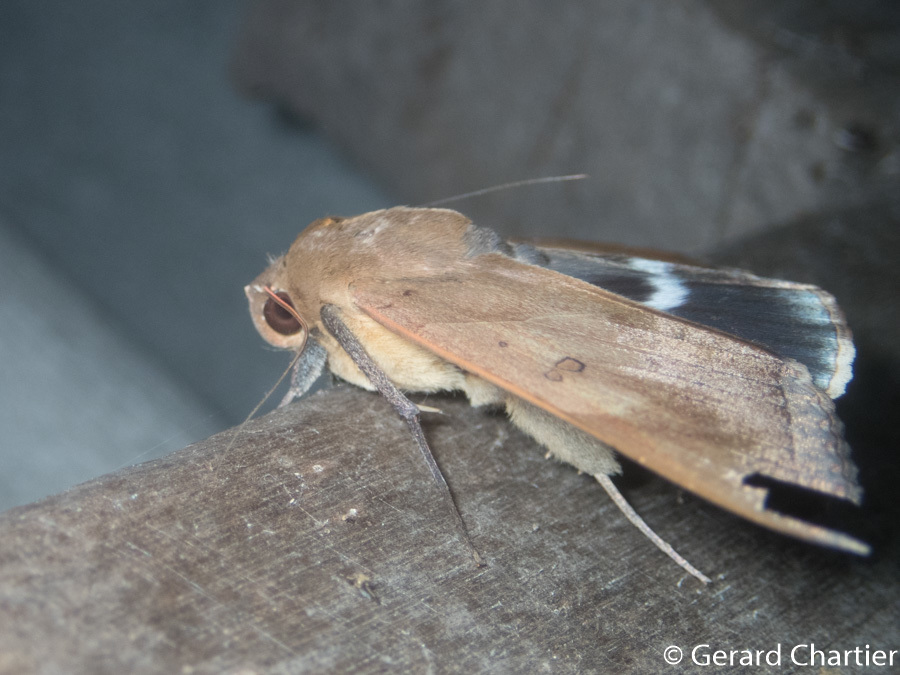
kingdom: Animalia
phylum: Arthropoda
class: Insecta
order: Lepidoptera
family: Erebidae
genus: Artena
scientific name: Artena dotata
